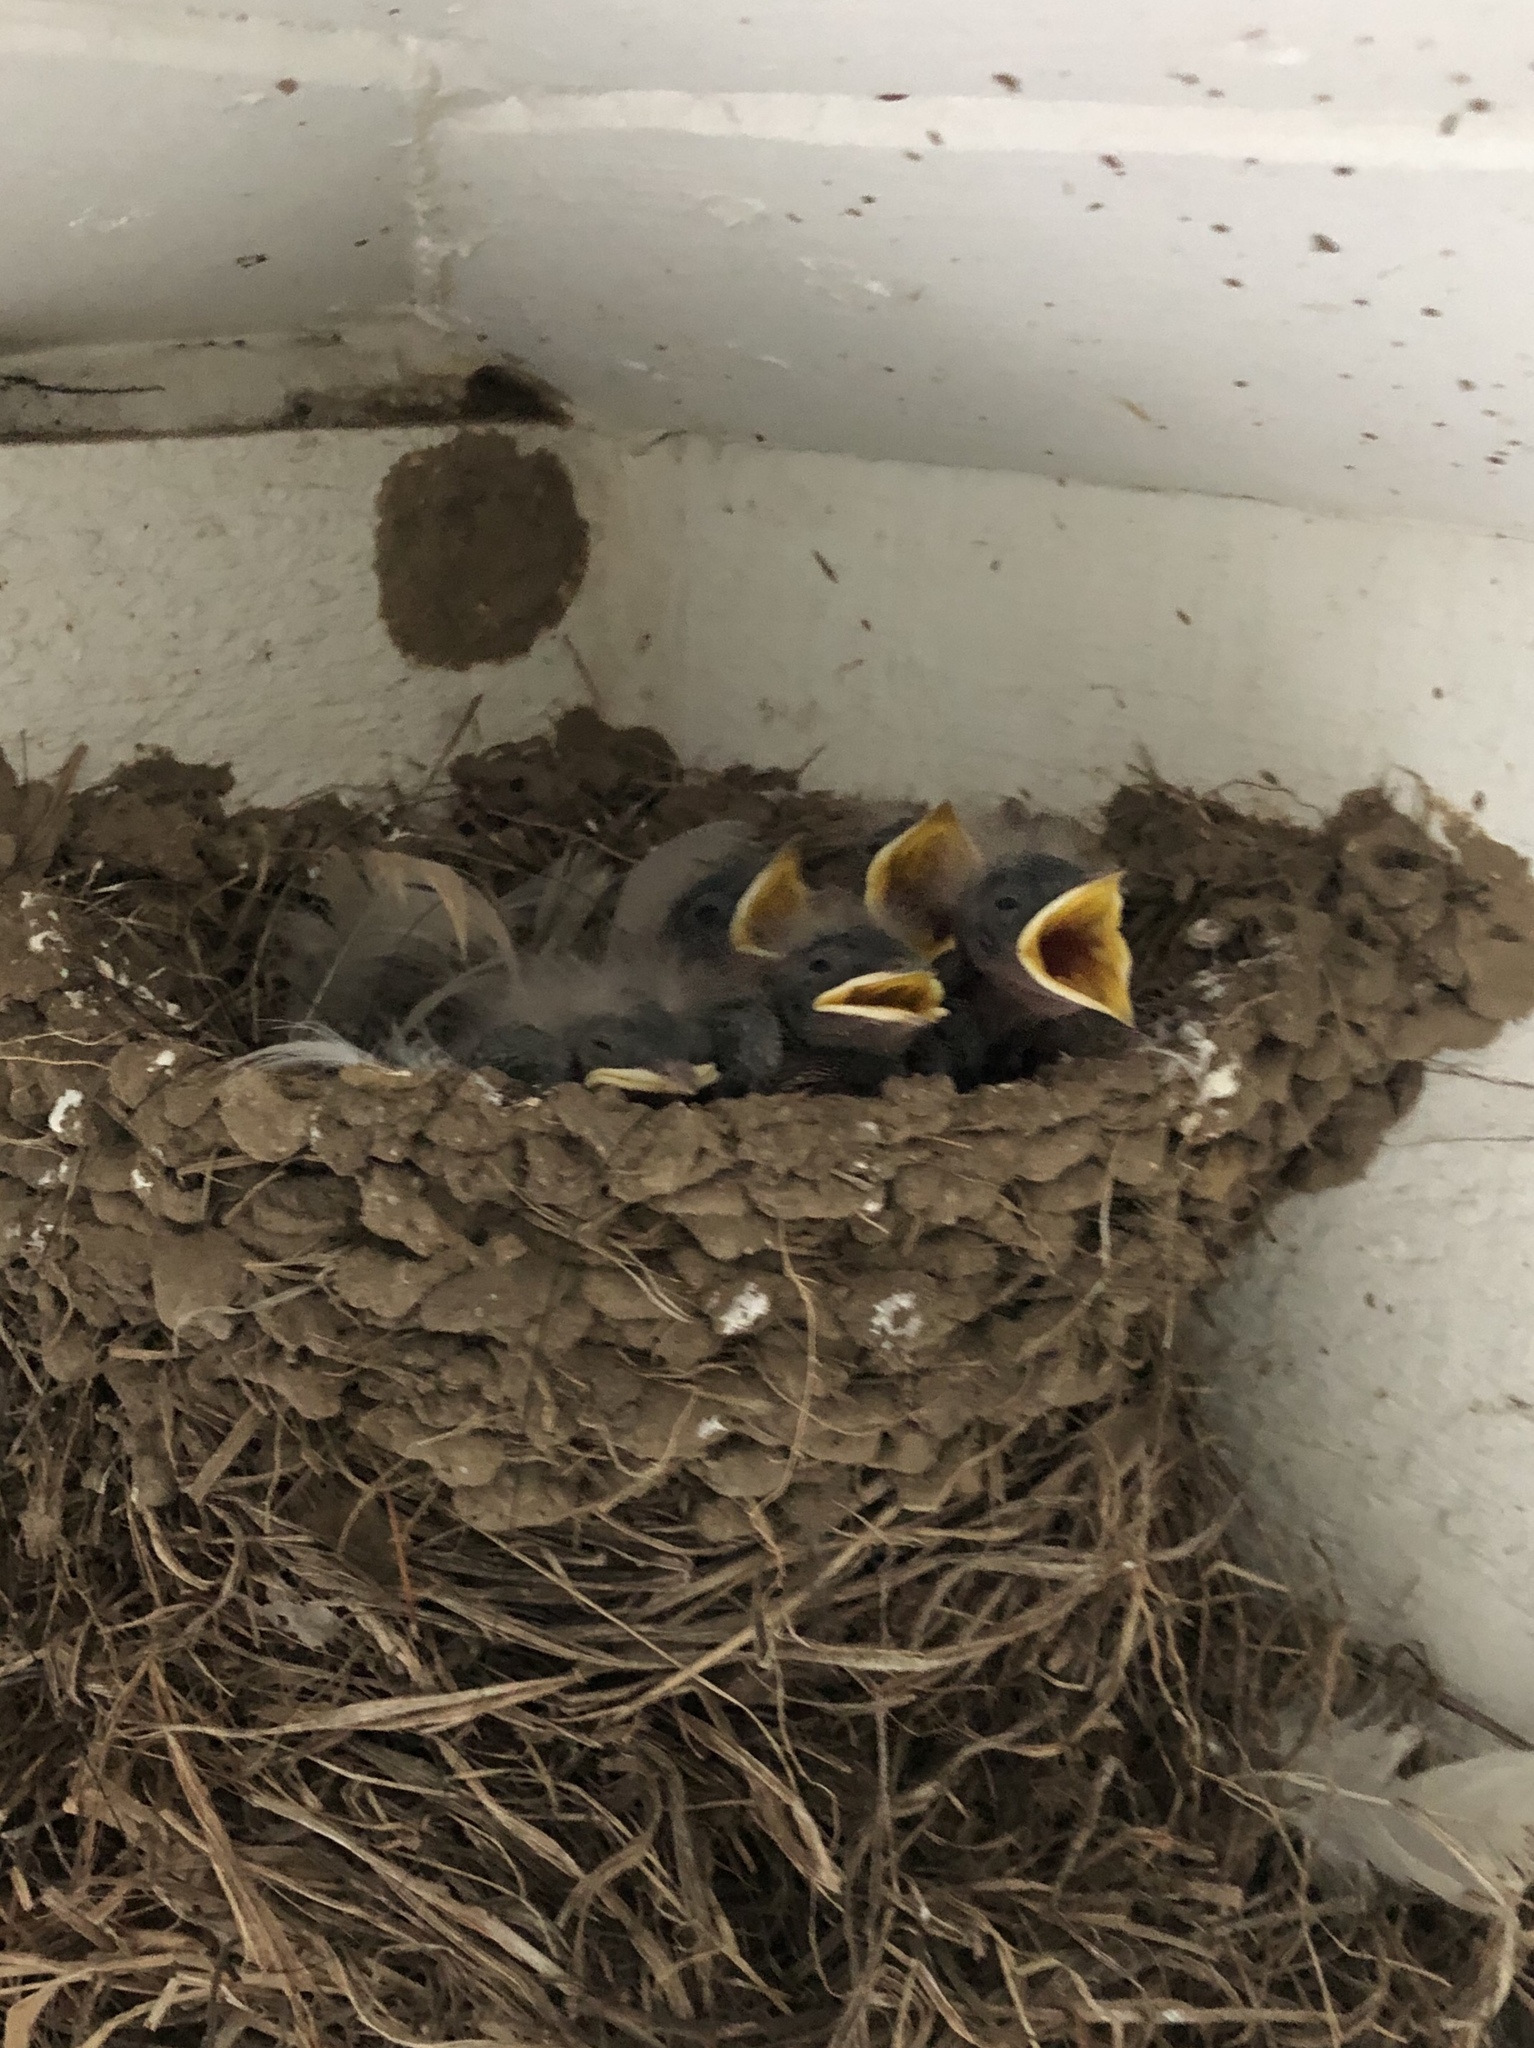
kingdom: Animalia
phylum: Chordata
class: Aves
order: Passeriformes
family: Hirundinidae
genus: Hirundo
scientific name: Hirundo rustica
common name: Barn swallow
